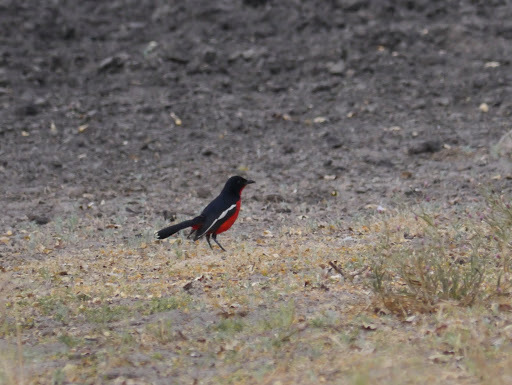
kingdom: Animalia
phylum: Chordata
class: Aves
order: Passeriformes
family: Malaconotidae
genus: Laniarius
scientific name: Laniarius atrococcineus
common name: Crimson-breasted shrike
